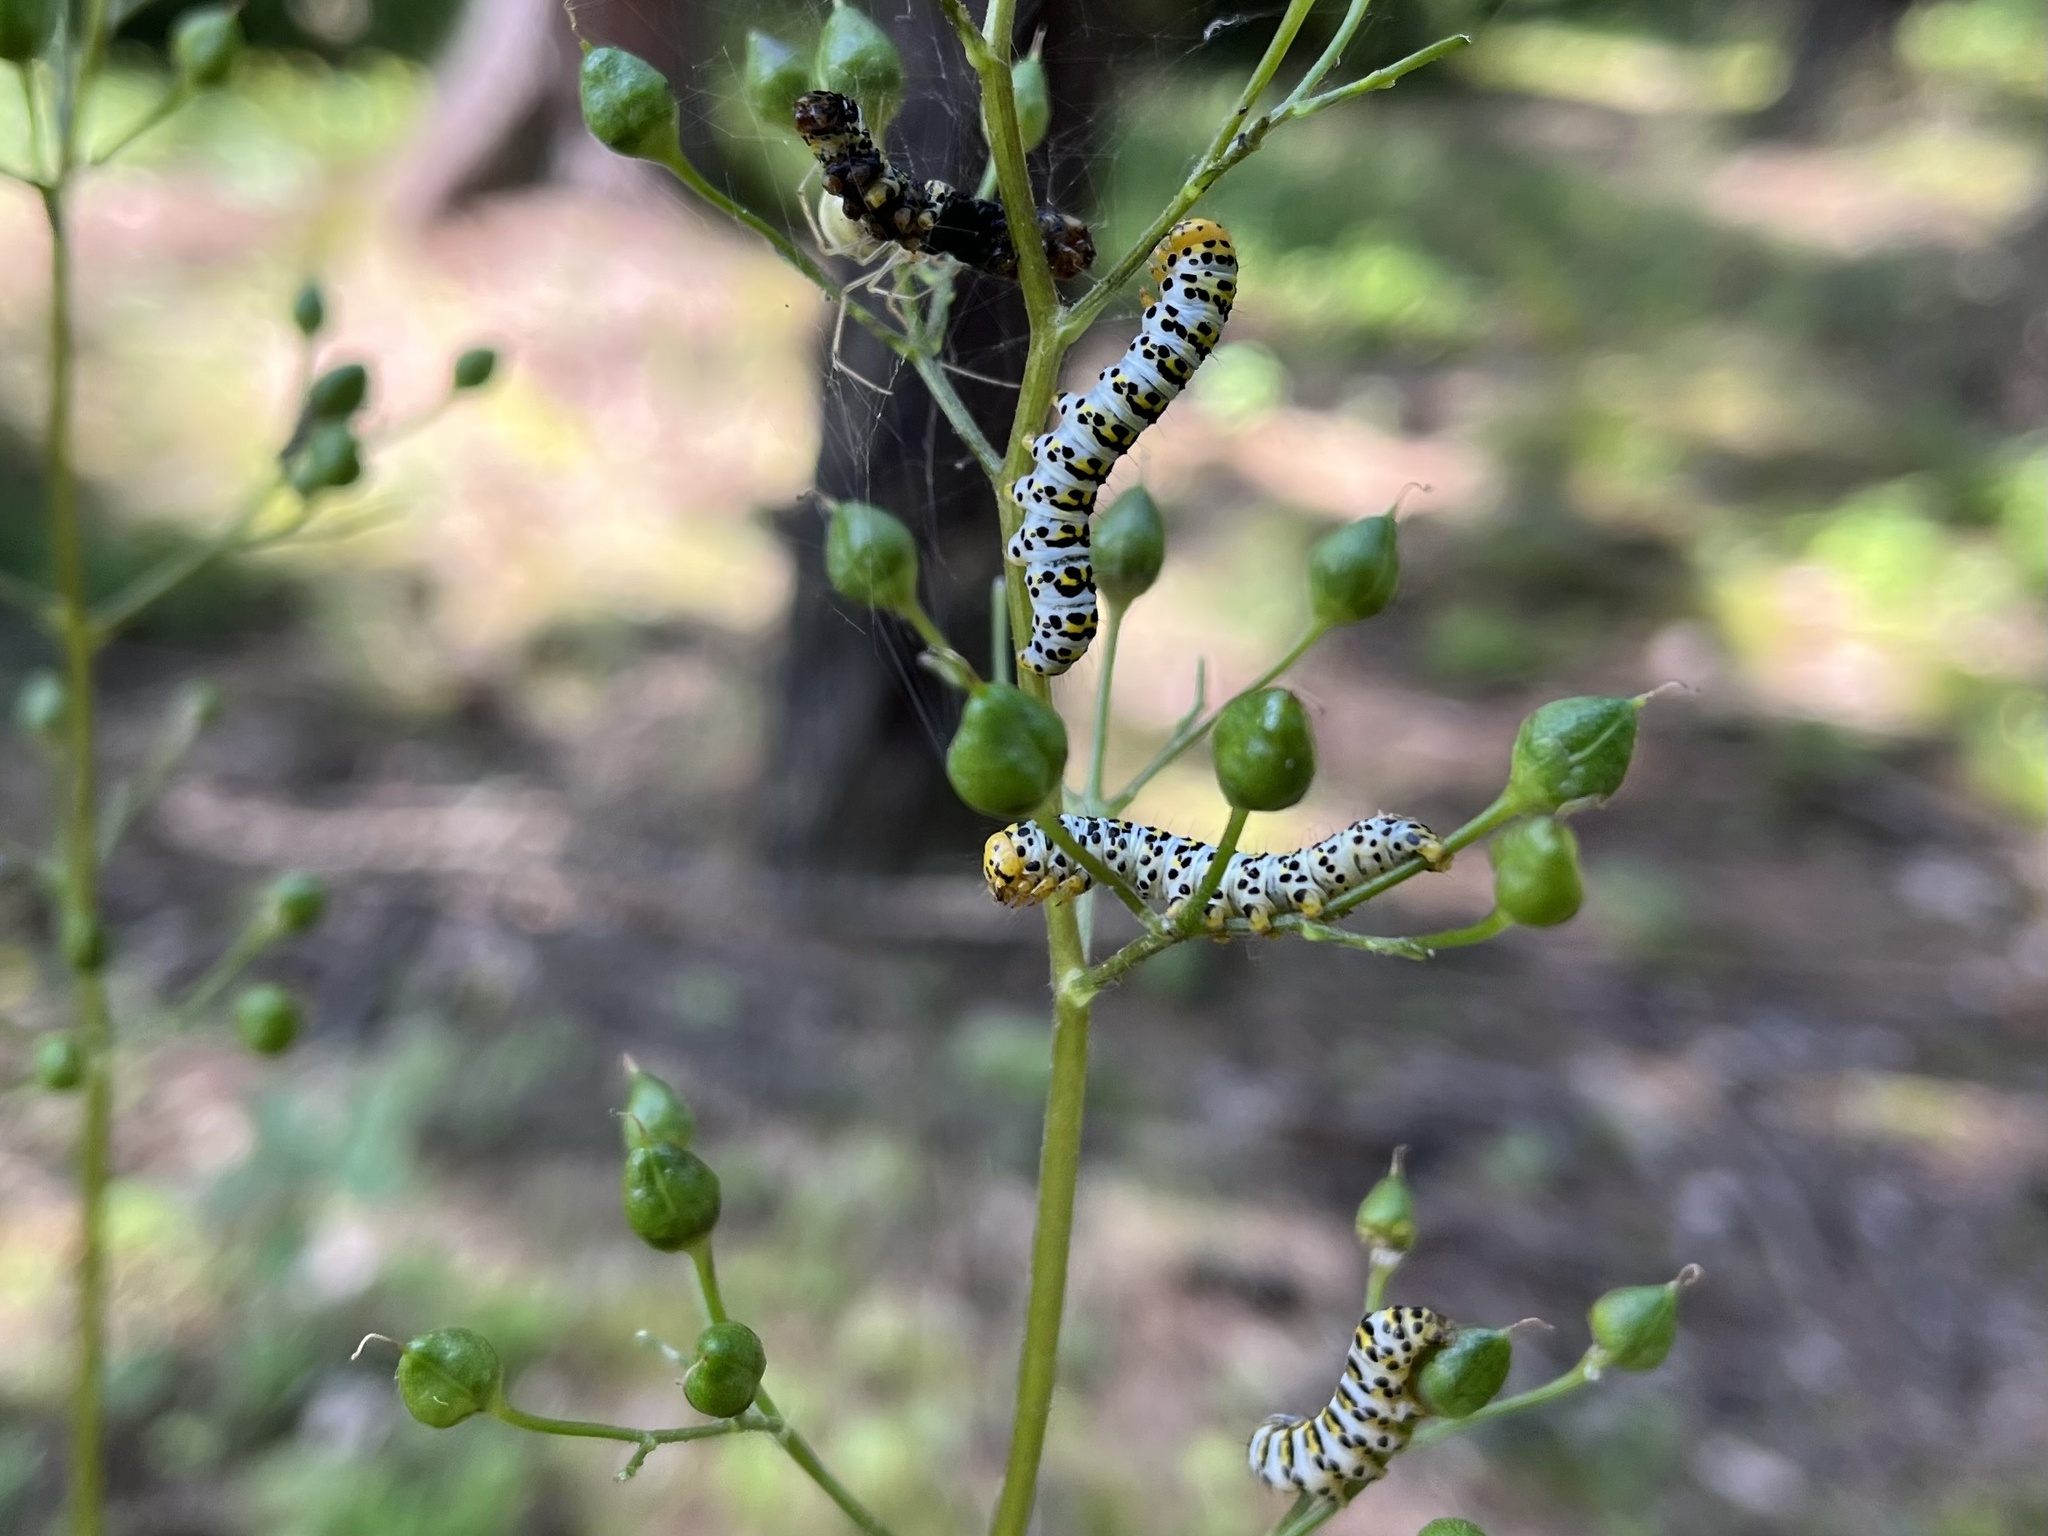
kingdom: Animalia
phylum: Arthropoda
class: Insecta
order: Lepidoptera
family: Noctuidae
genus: Shargacucullia
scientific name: Shargacucullia scrophulariae
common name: Water betony
